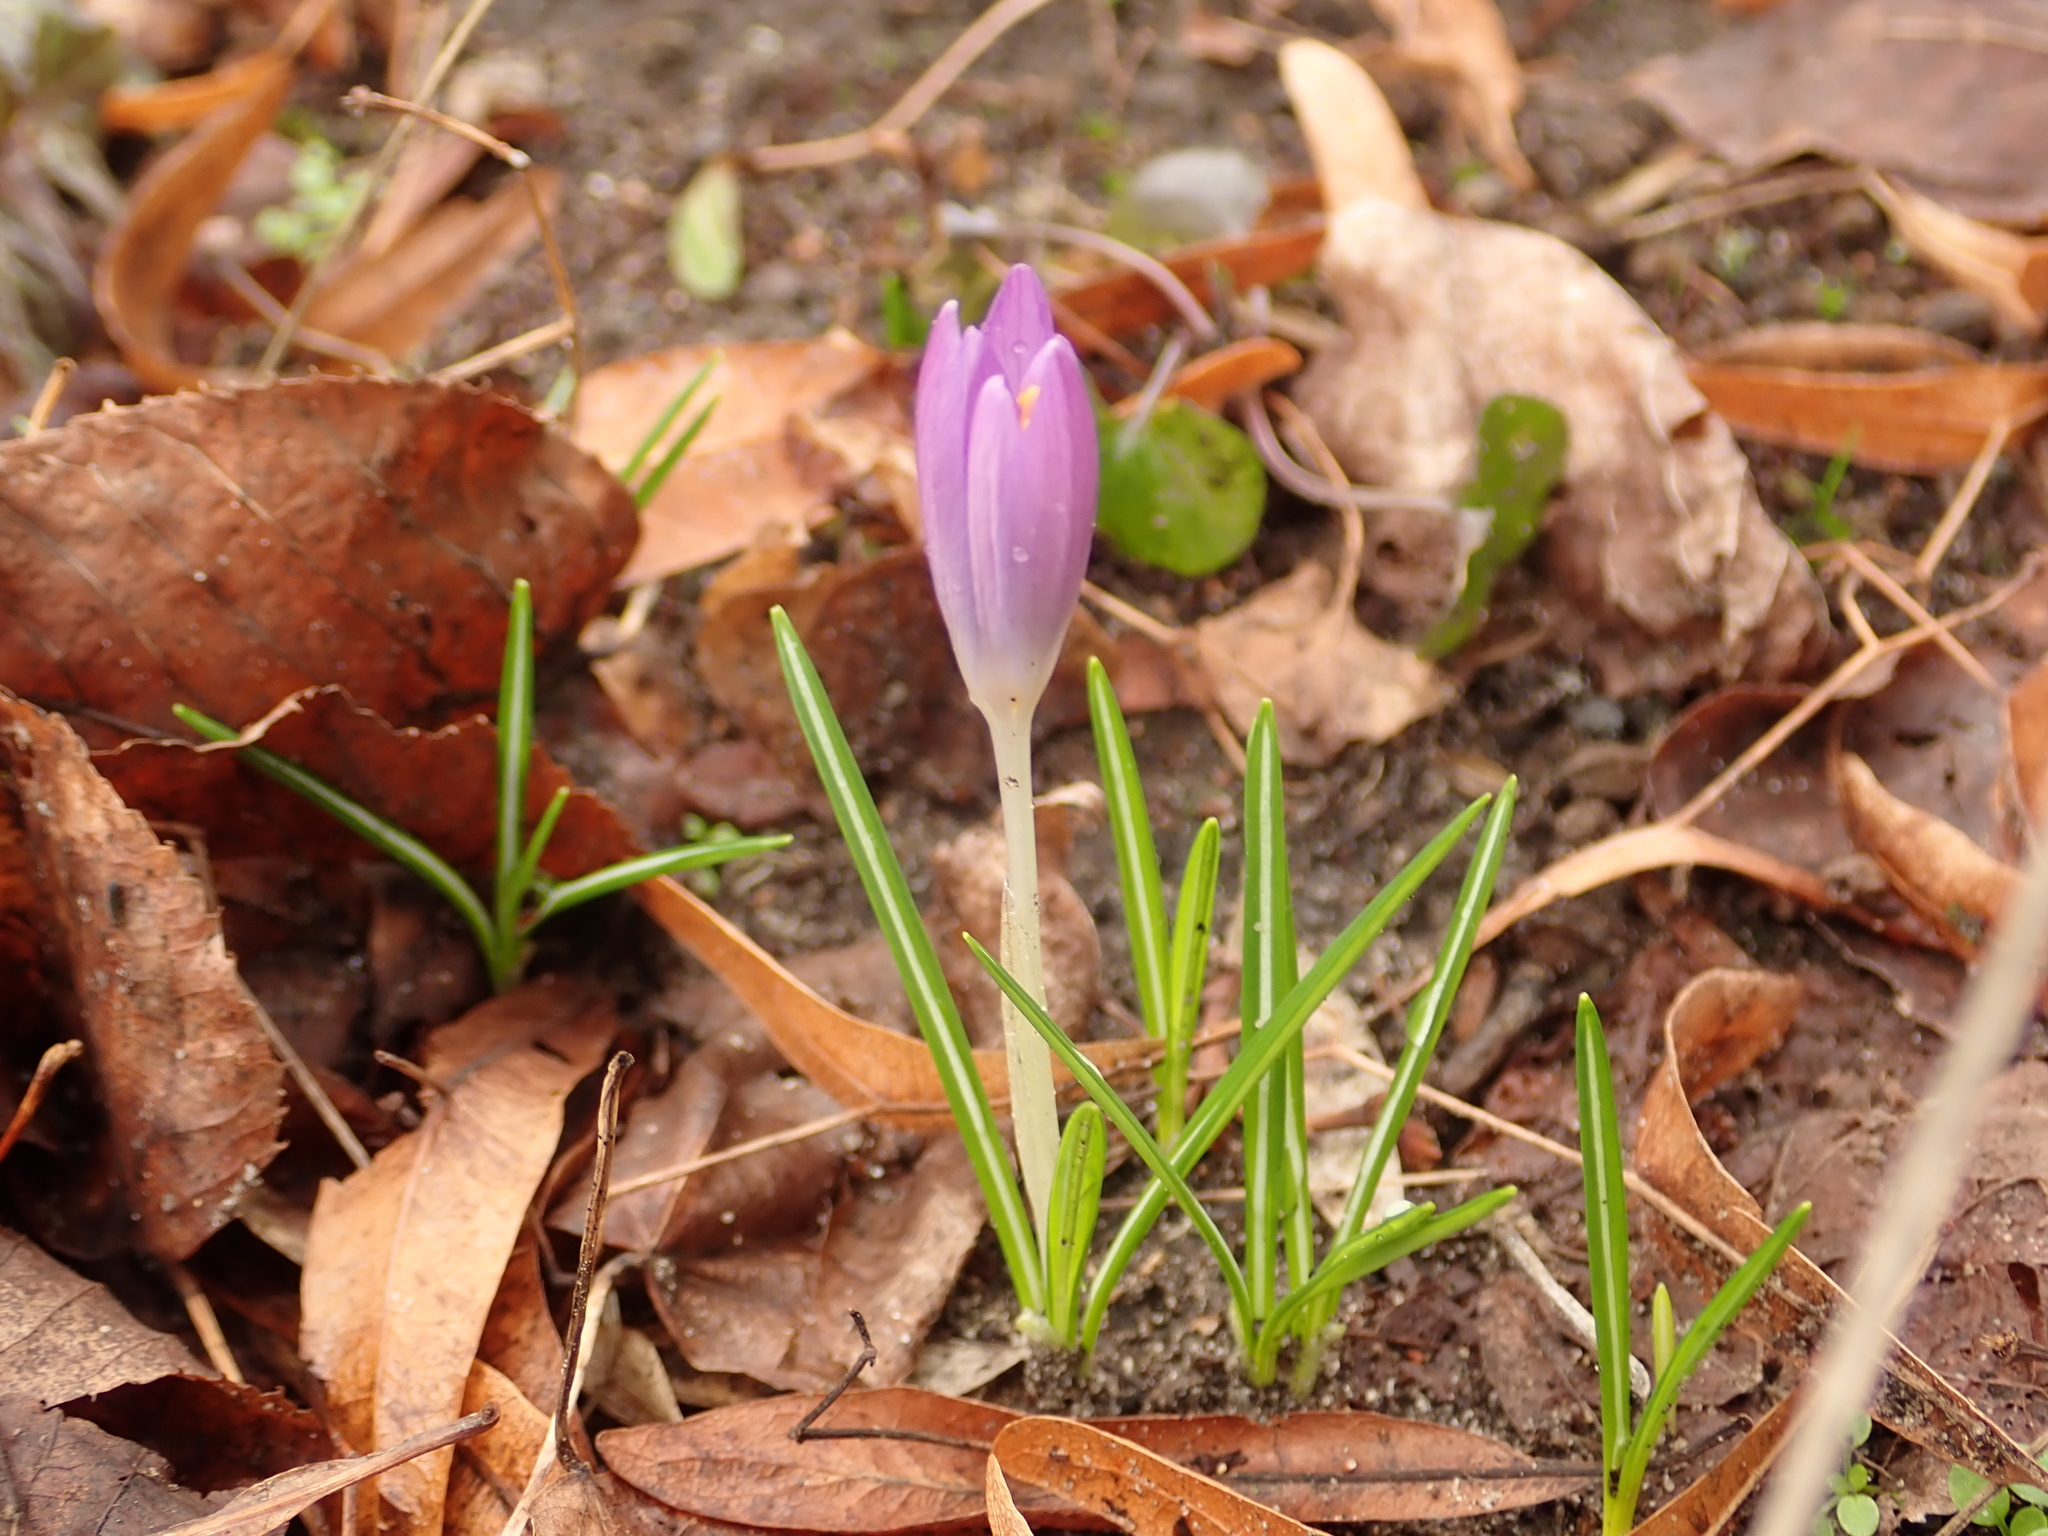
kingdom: Plantae
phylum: Tracheophyta
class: Liliopsida
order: Asparagales
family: Iridaceae
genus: Crocus
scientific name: Crocus tommasinianus
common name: Early crocus
